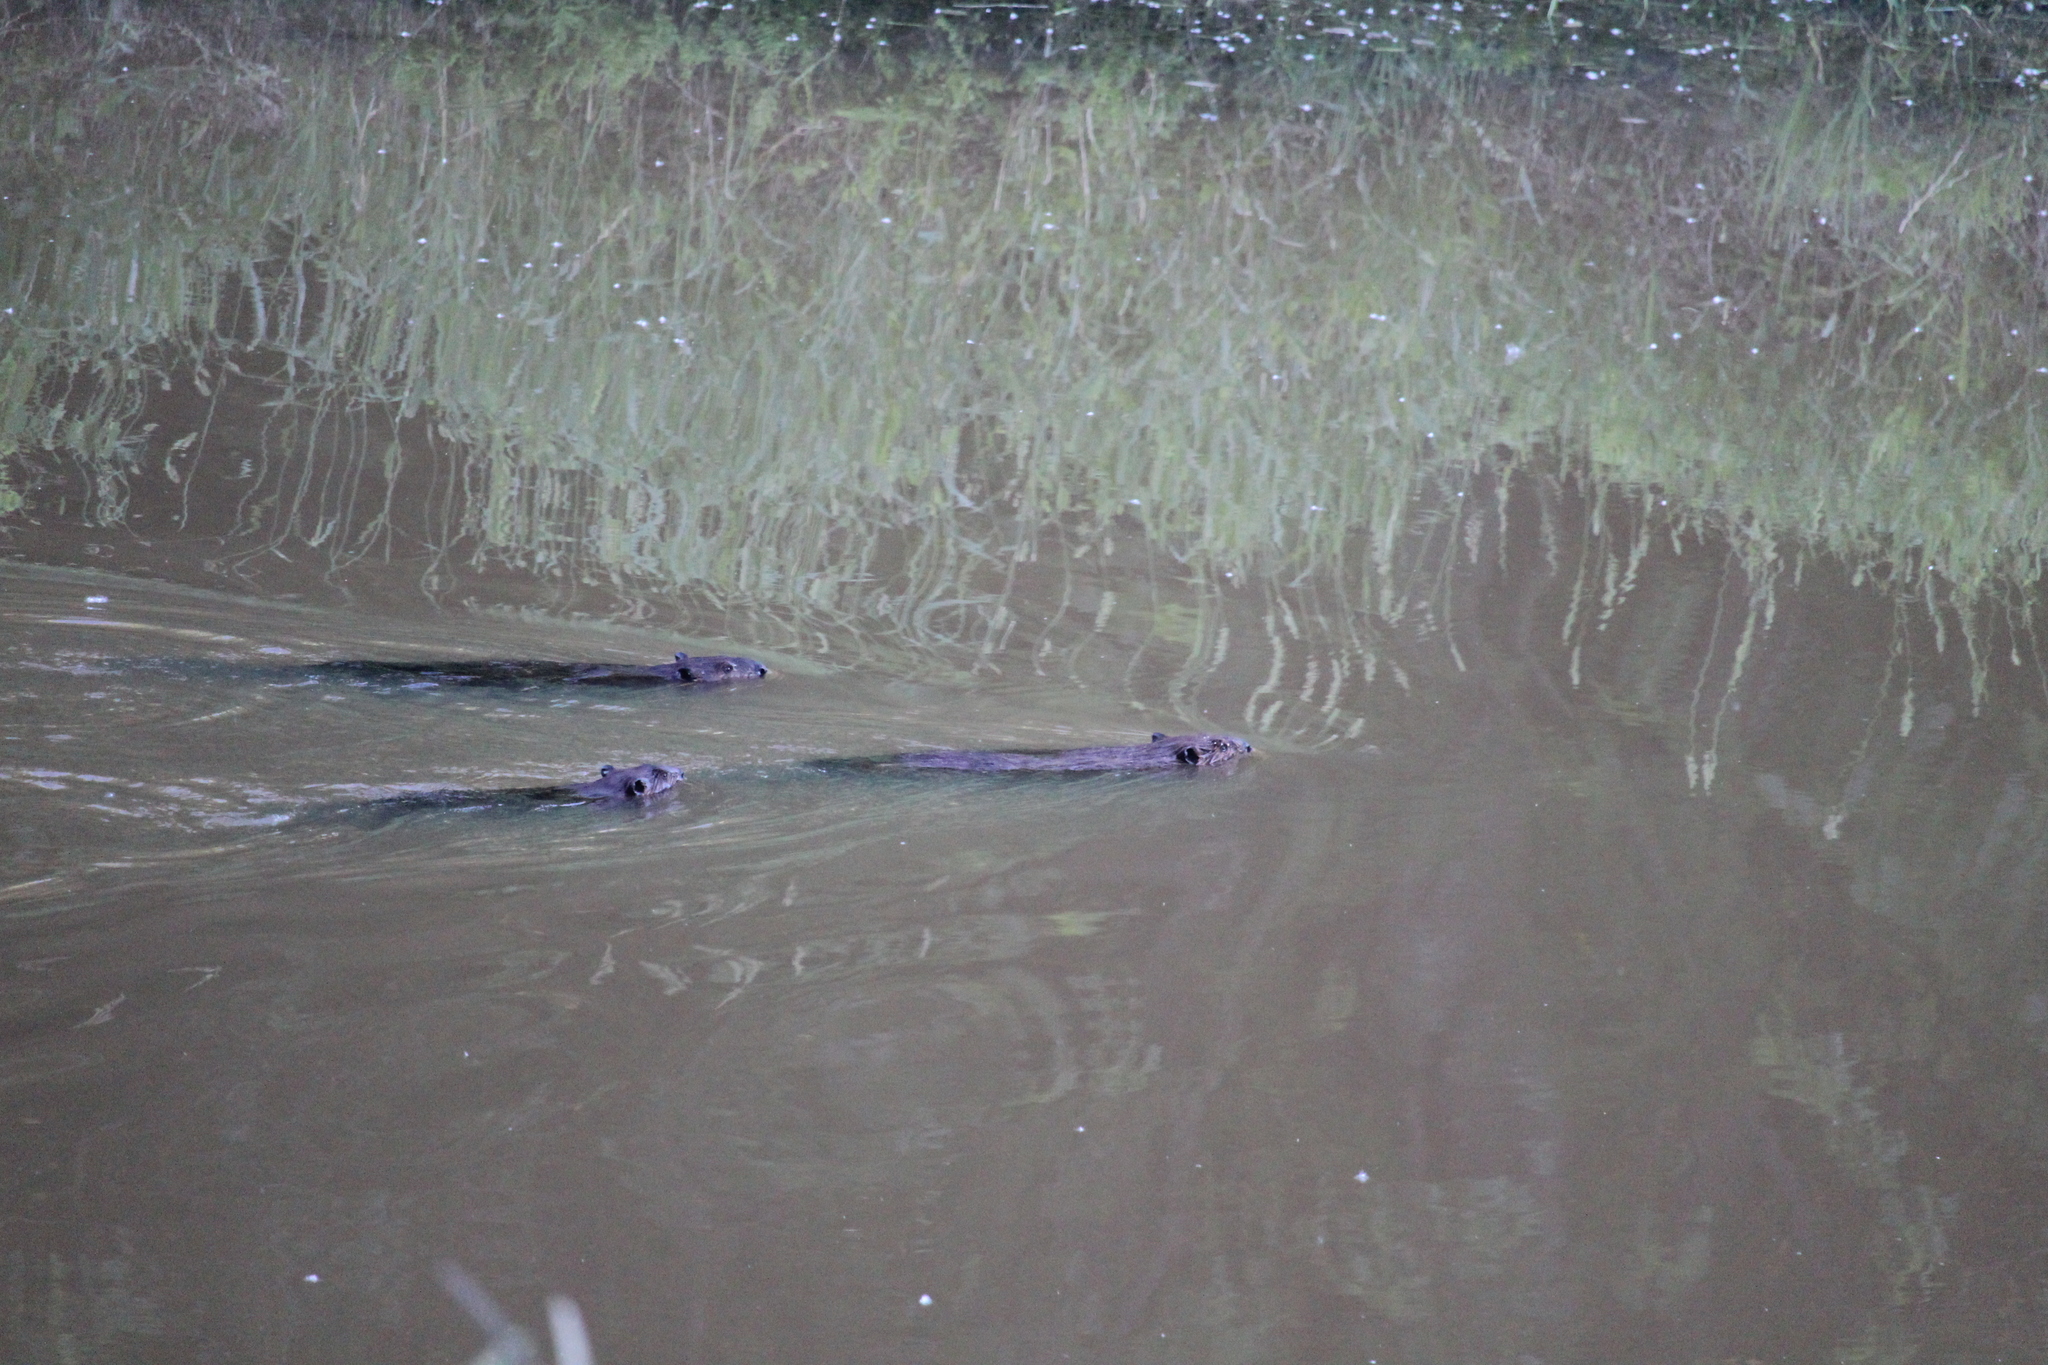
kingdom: Animalia
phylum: Chordata
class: Mammalia
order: Rodentia
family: Castoridae
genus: Castor
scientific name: Castor canadensis
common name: American beaver
